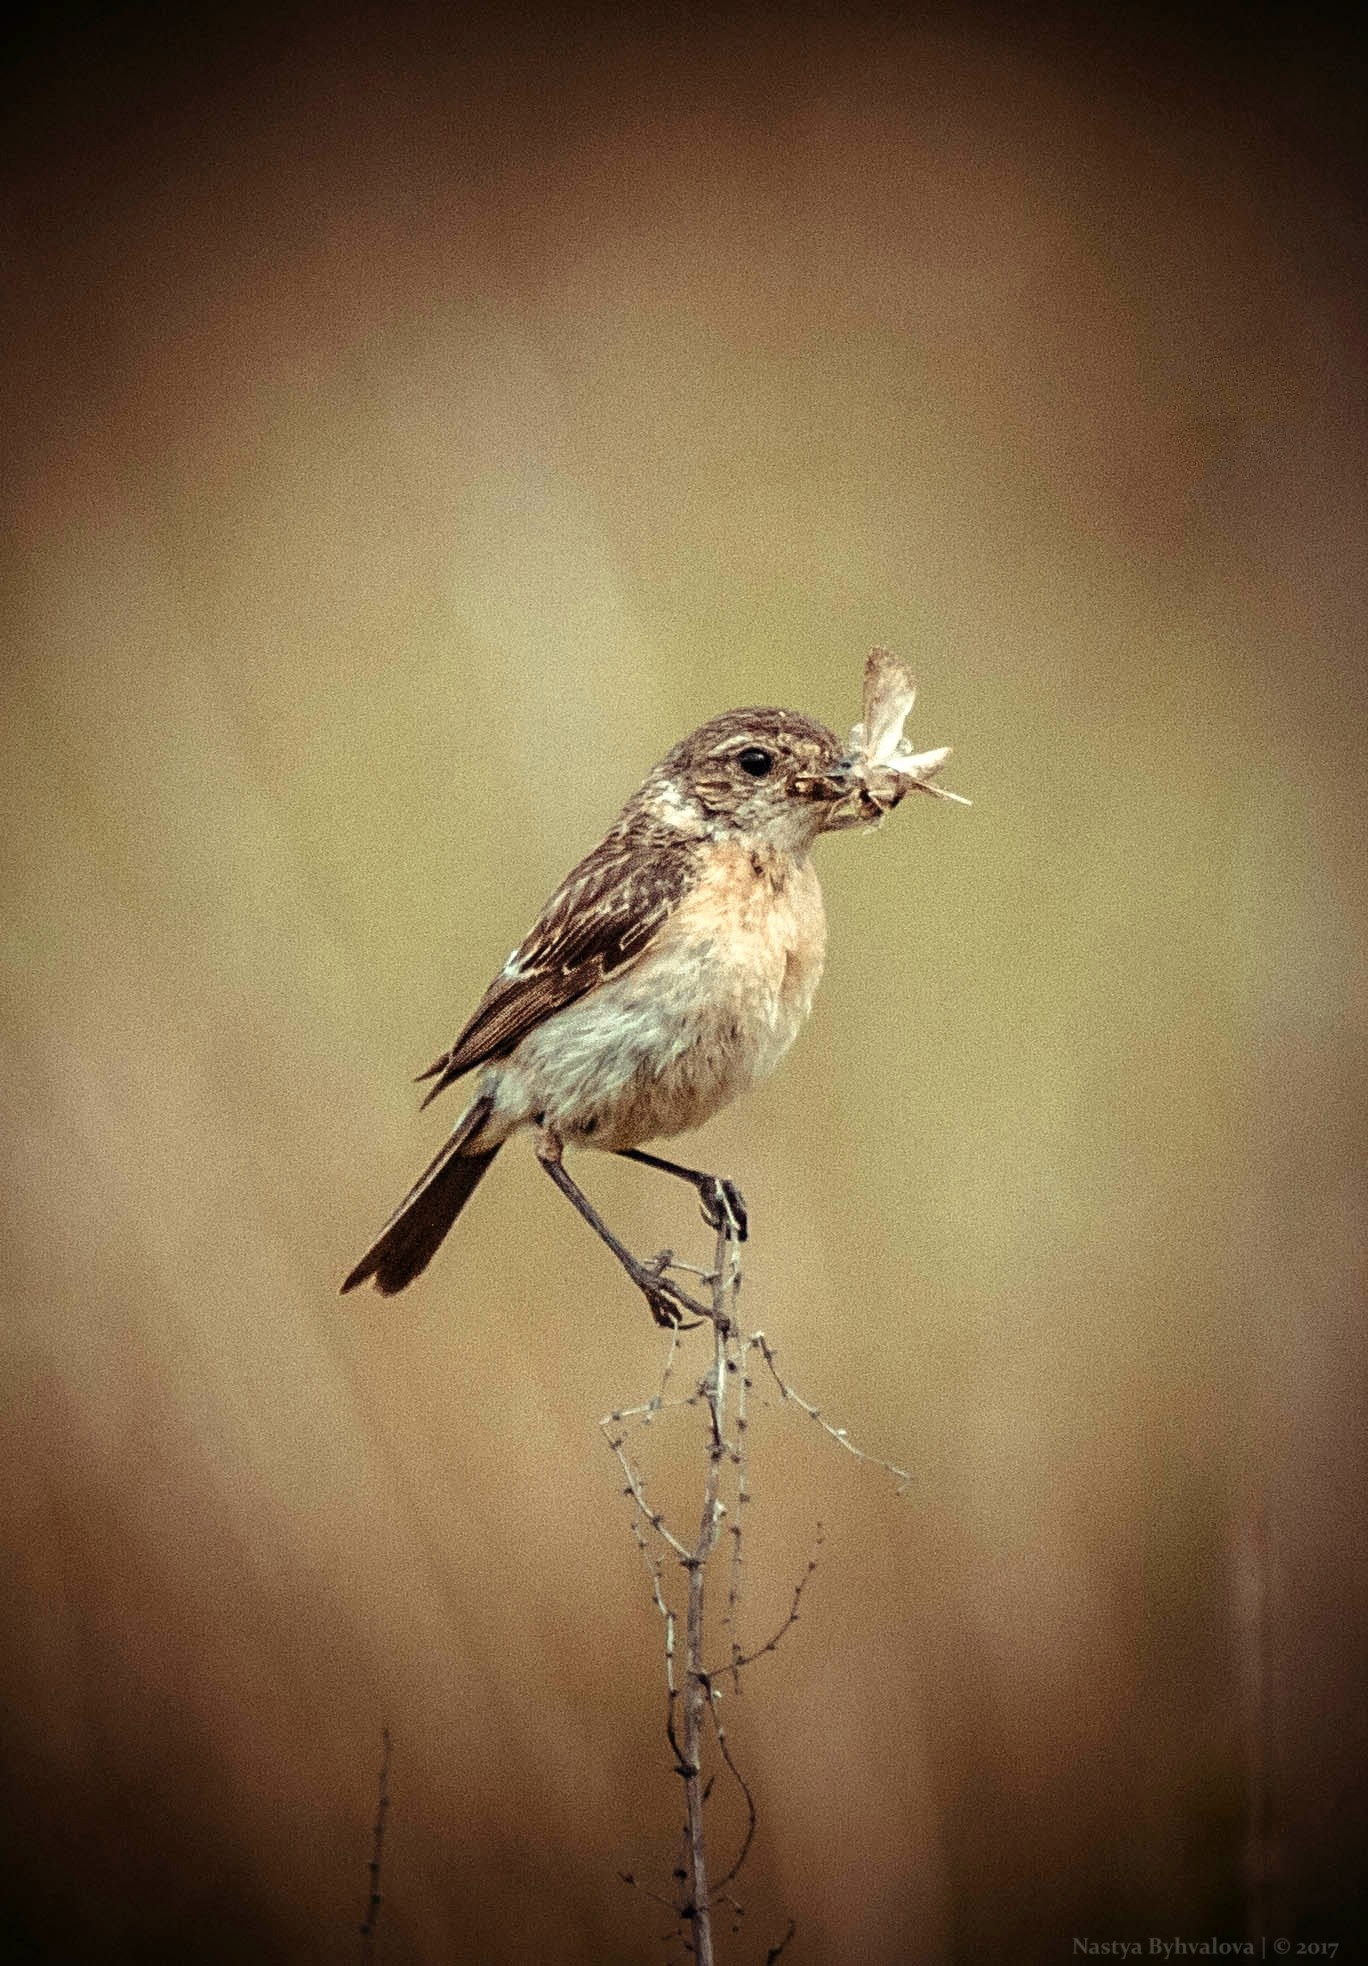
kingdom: Animalia
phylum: Chordata
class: Aves
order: Passeriformes
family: Muscicapidae
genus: Saxicola
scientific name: Saxicola maurus
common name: Siberian stonechat
